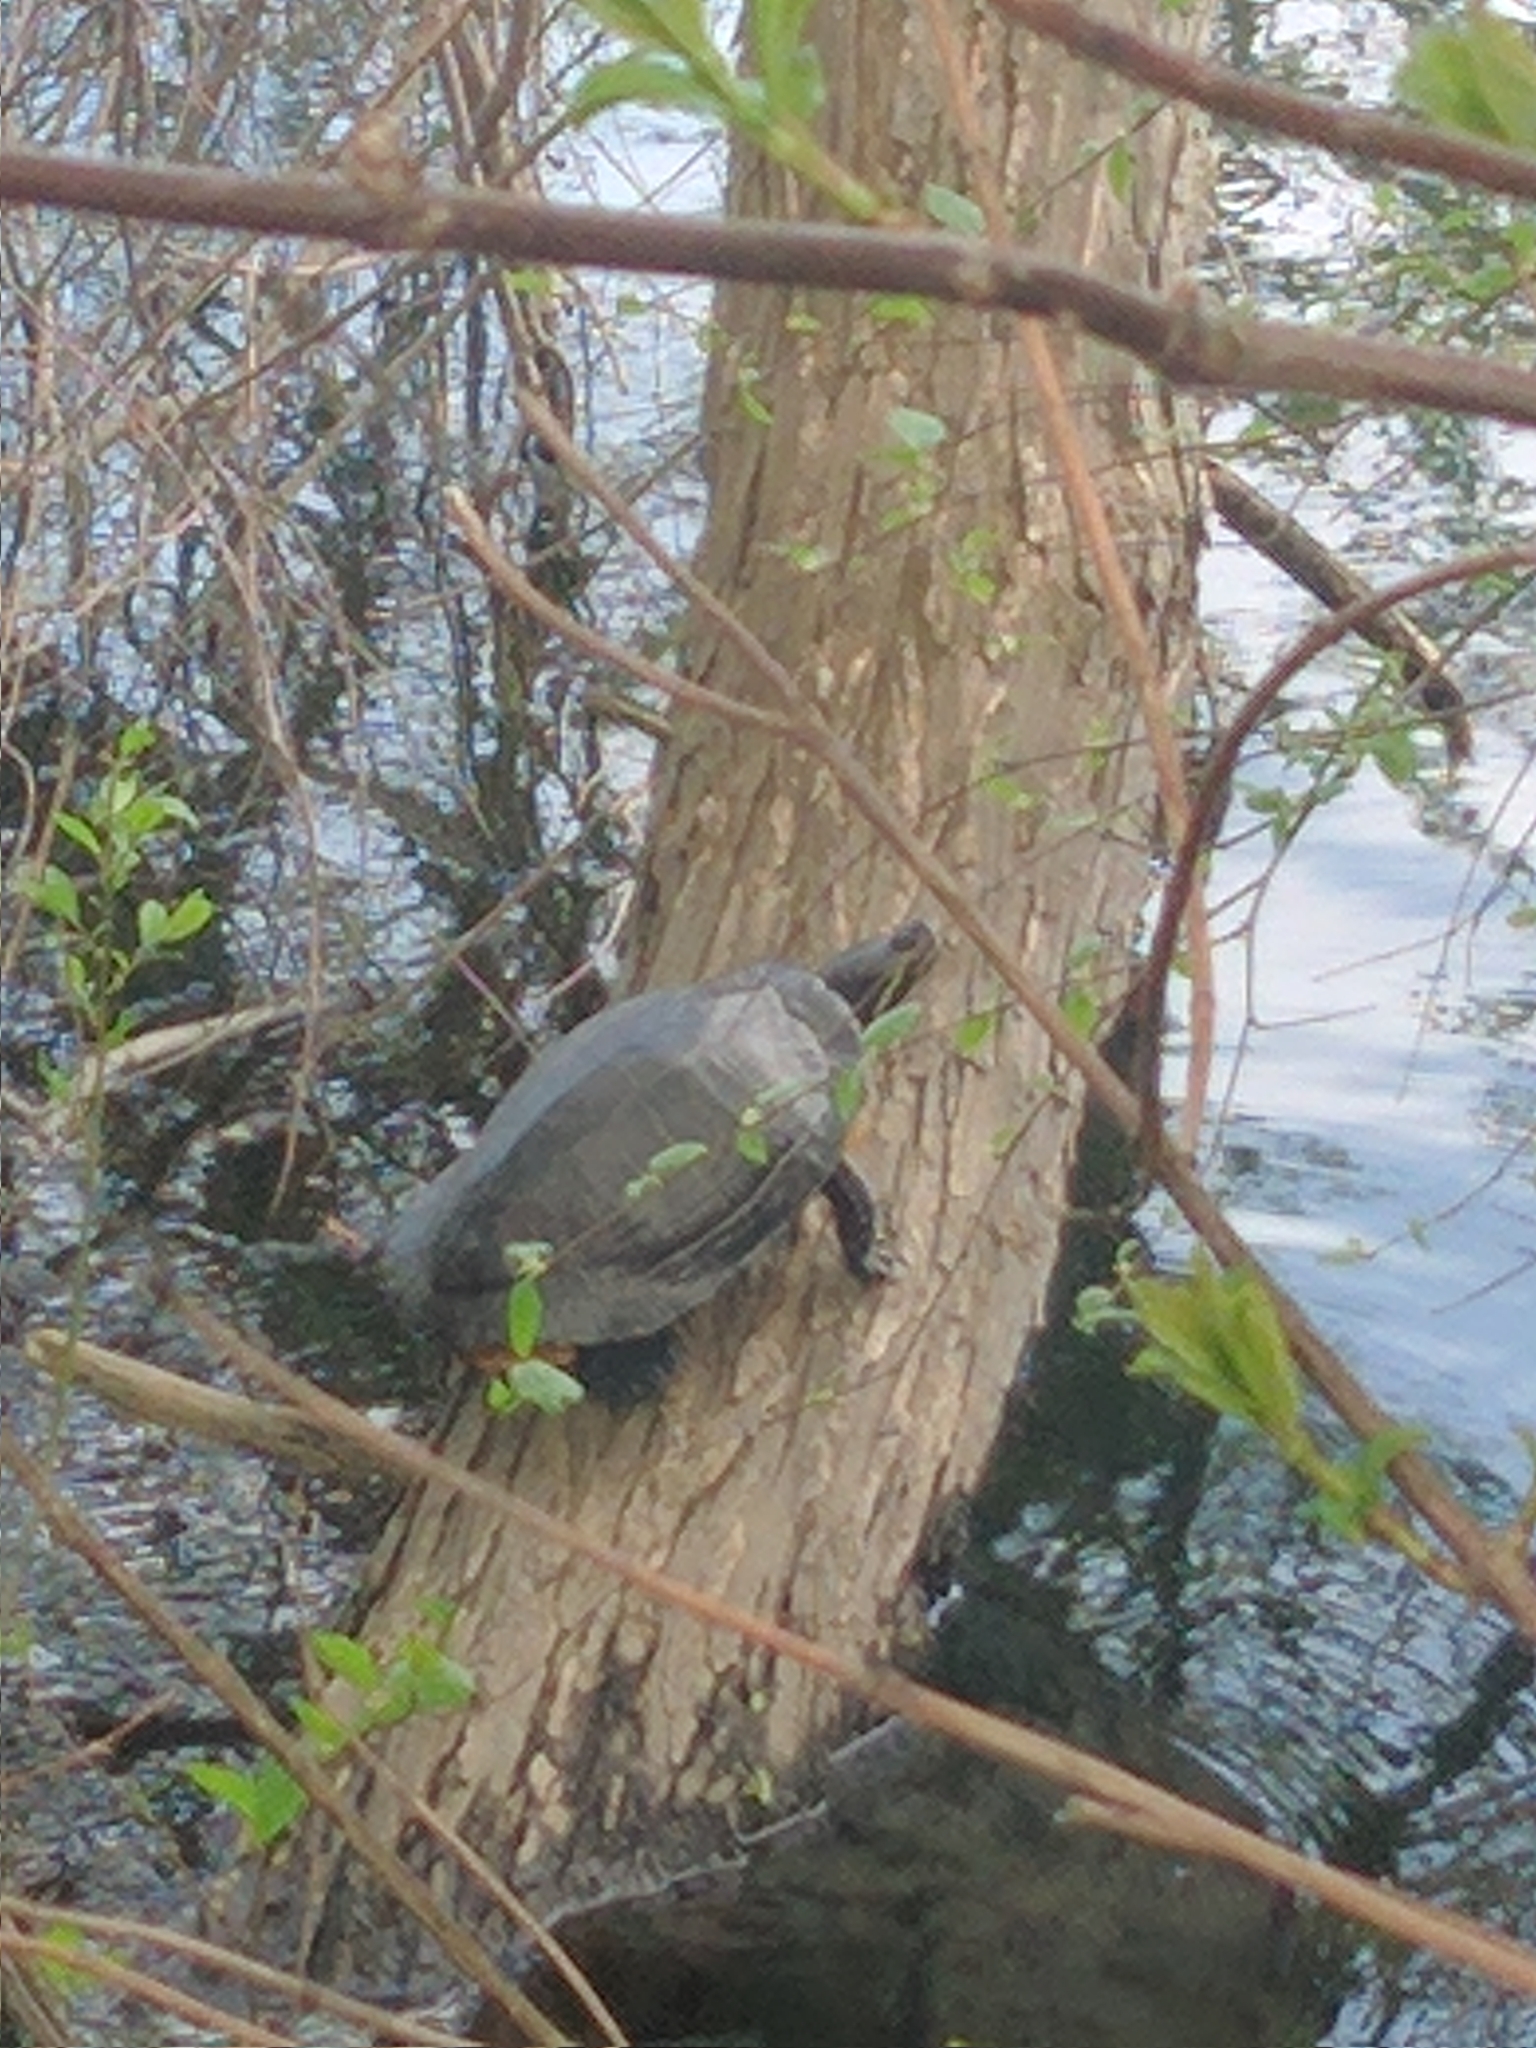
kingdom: Animalia
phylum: Chordata
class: Testudines
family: Emydidae
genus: Trachemys
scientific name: Trachemys scripta
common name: Slider
